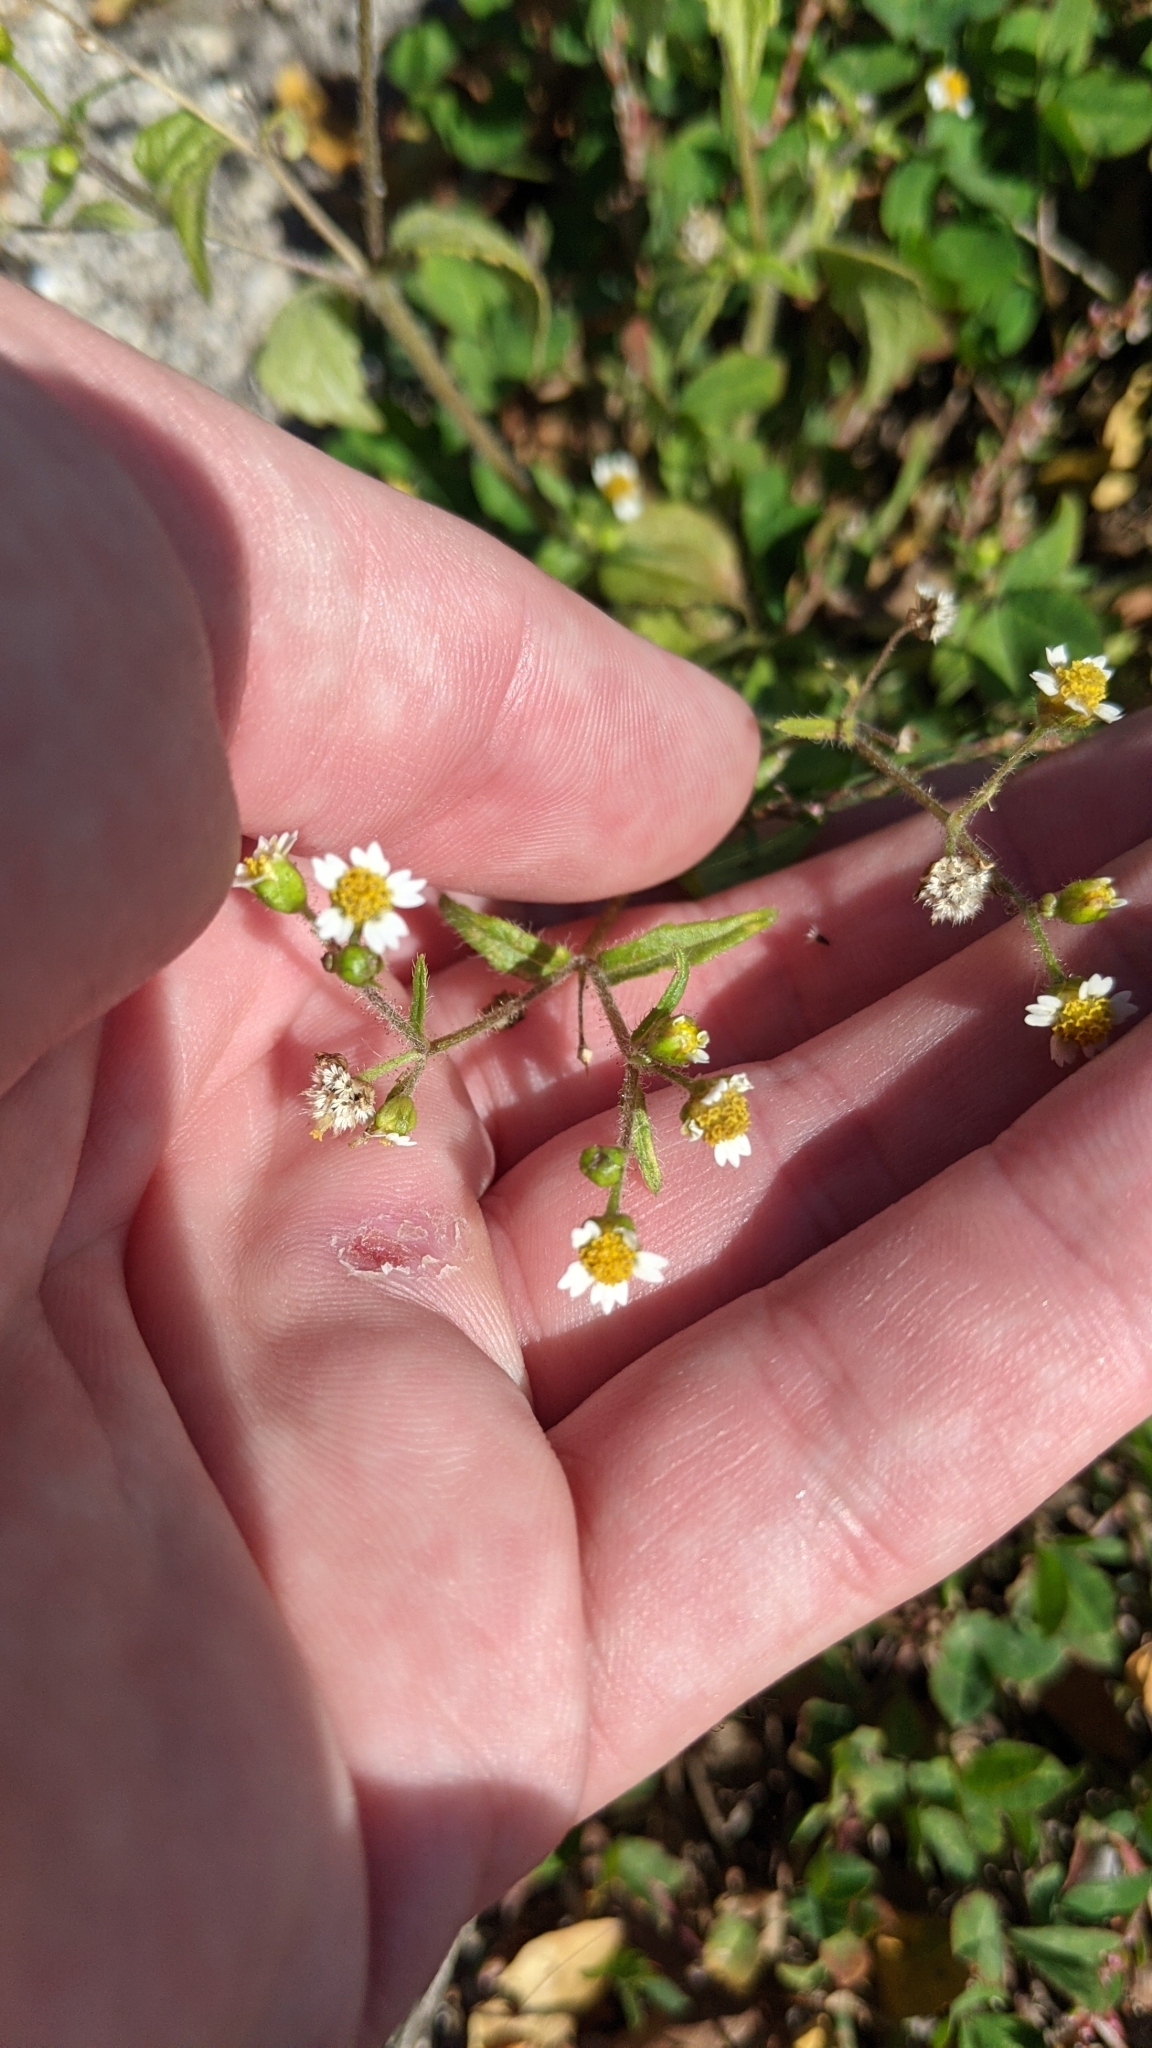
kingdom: Plantae
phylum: Tracheophyta
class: Magnoliopsida
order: Asterales
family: Asteraceae
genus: Galinsoga
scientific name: Galinsoga quadriradiata
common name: Shaggy soldier
